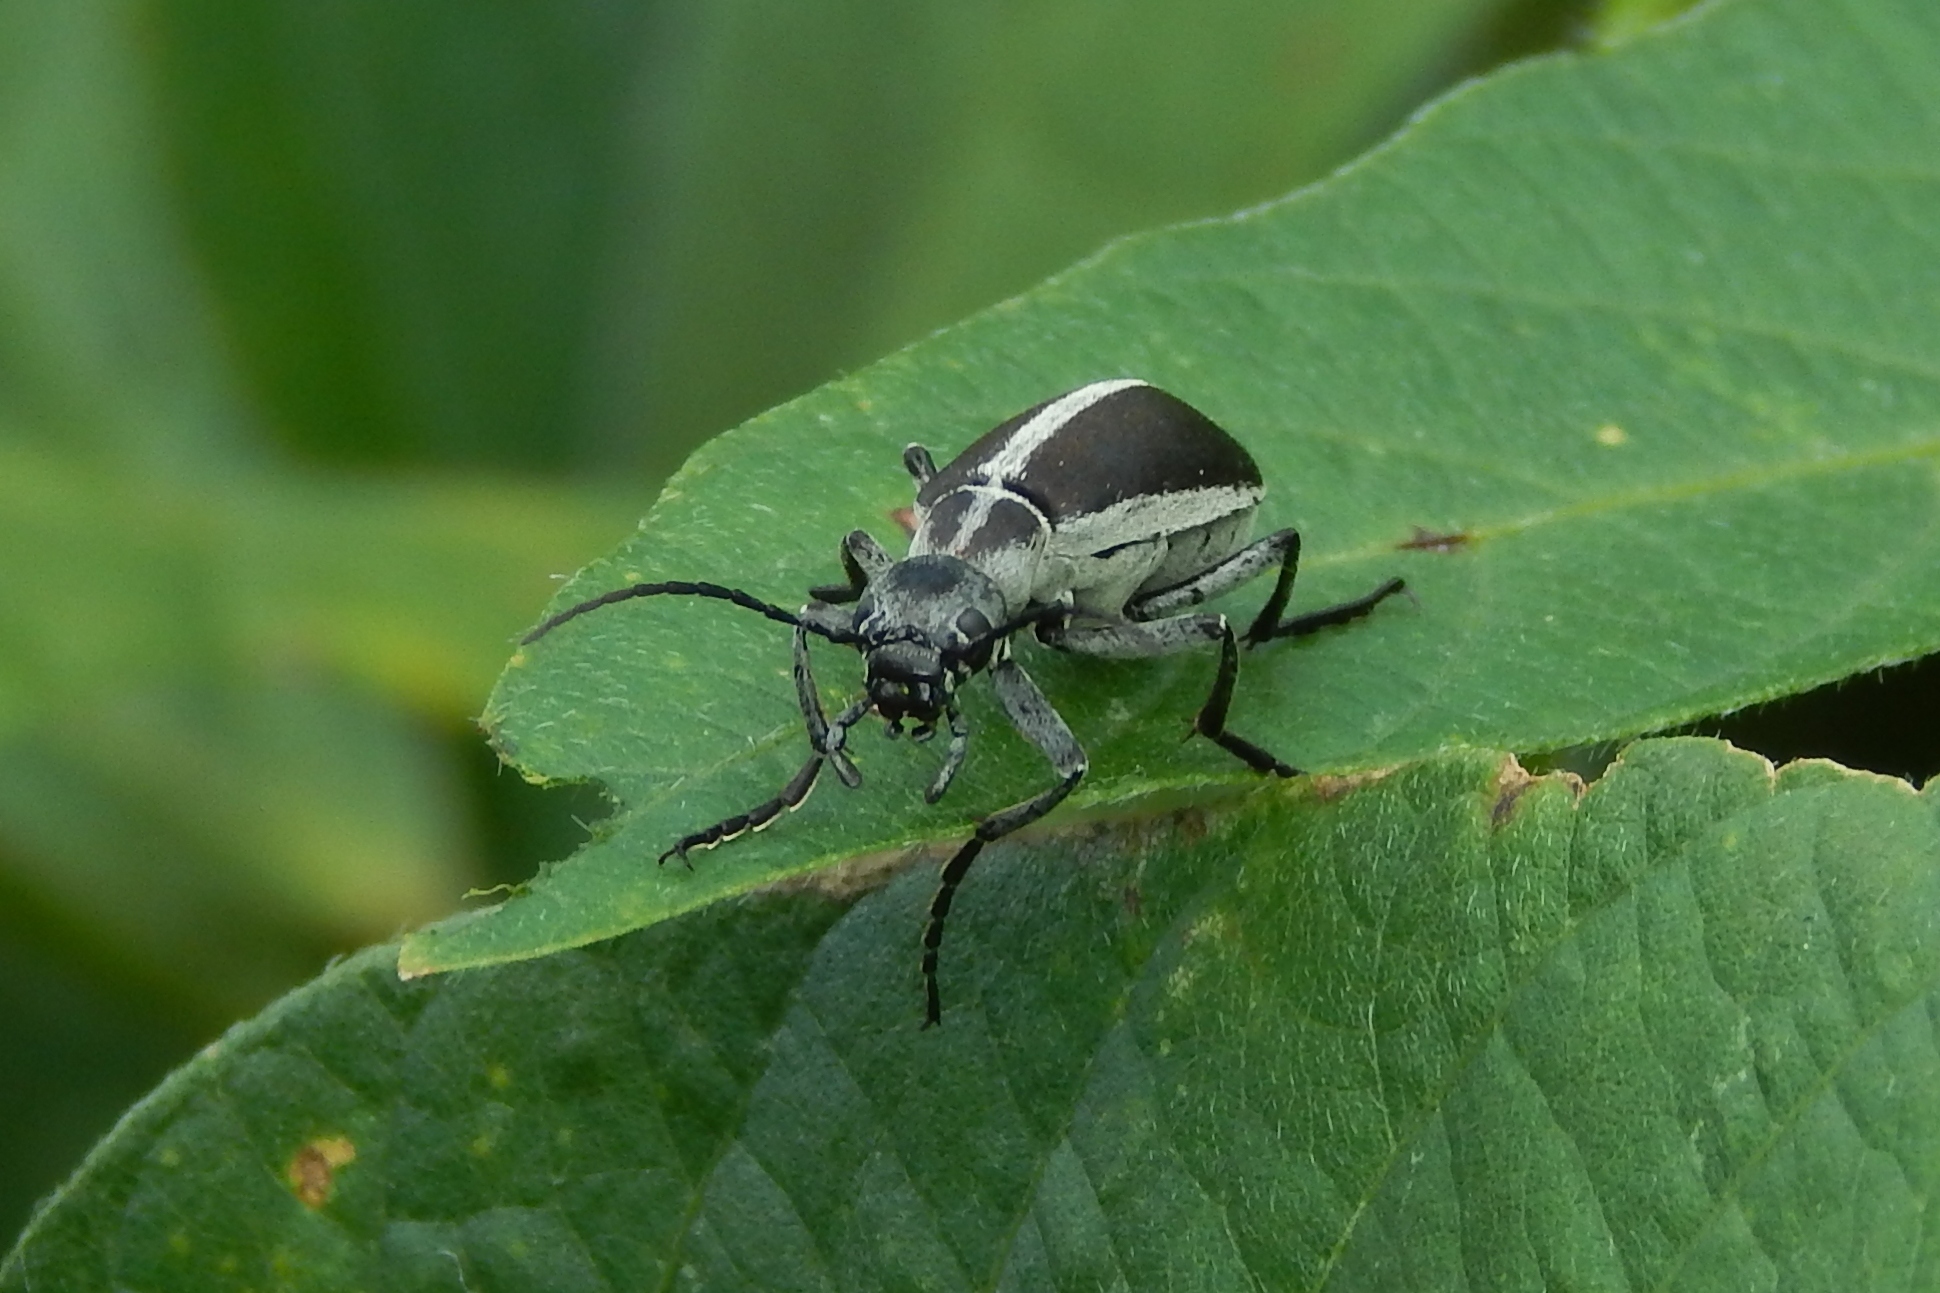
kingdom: Animalia
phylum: Arthropoda
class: Insecta
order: Coleoptera
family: Meloidae
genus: Epicauta
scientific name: Epicauta funebris
